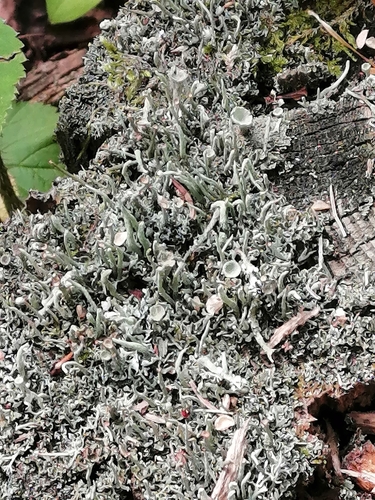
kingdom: Fungi
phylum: Ascomycota
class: Lecanoromycetes
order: Lecanorales
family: Cladoniaceae
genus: Cladonia
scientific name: Cladonia fimbriata
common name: Powdered trumpet lichen
